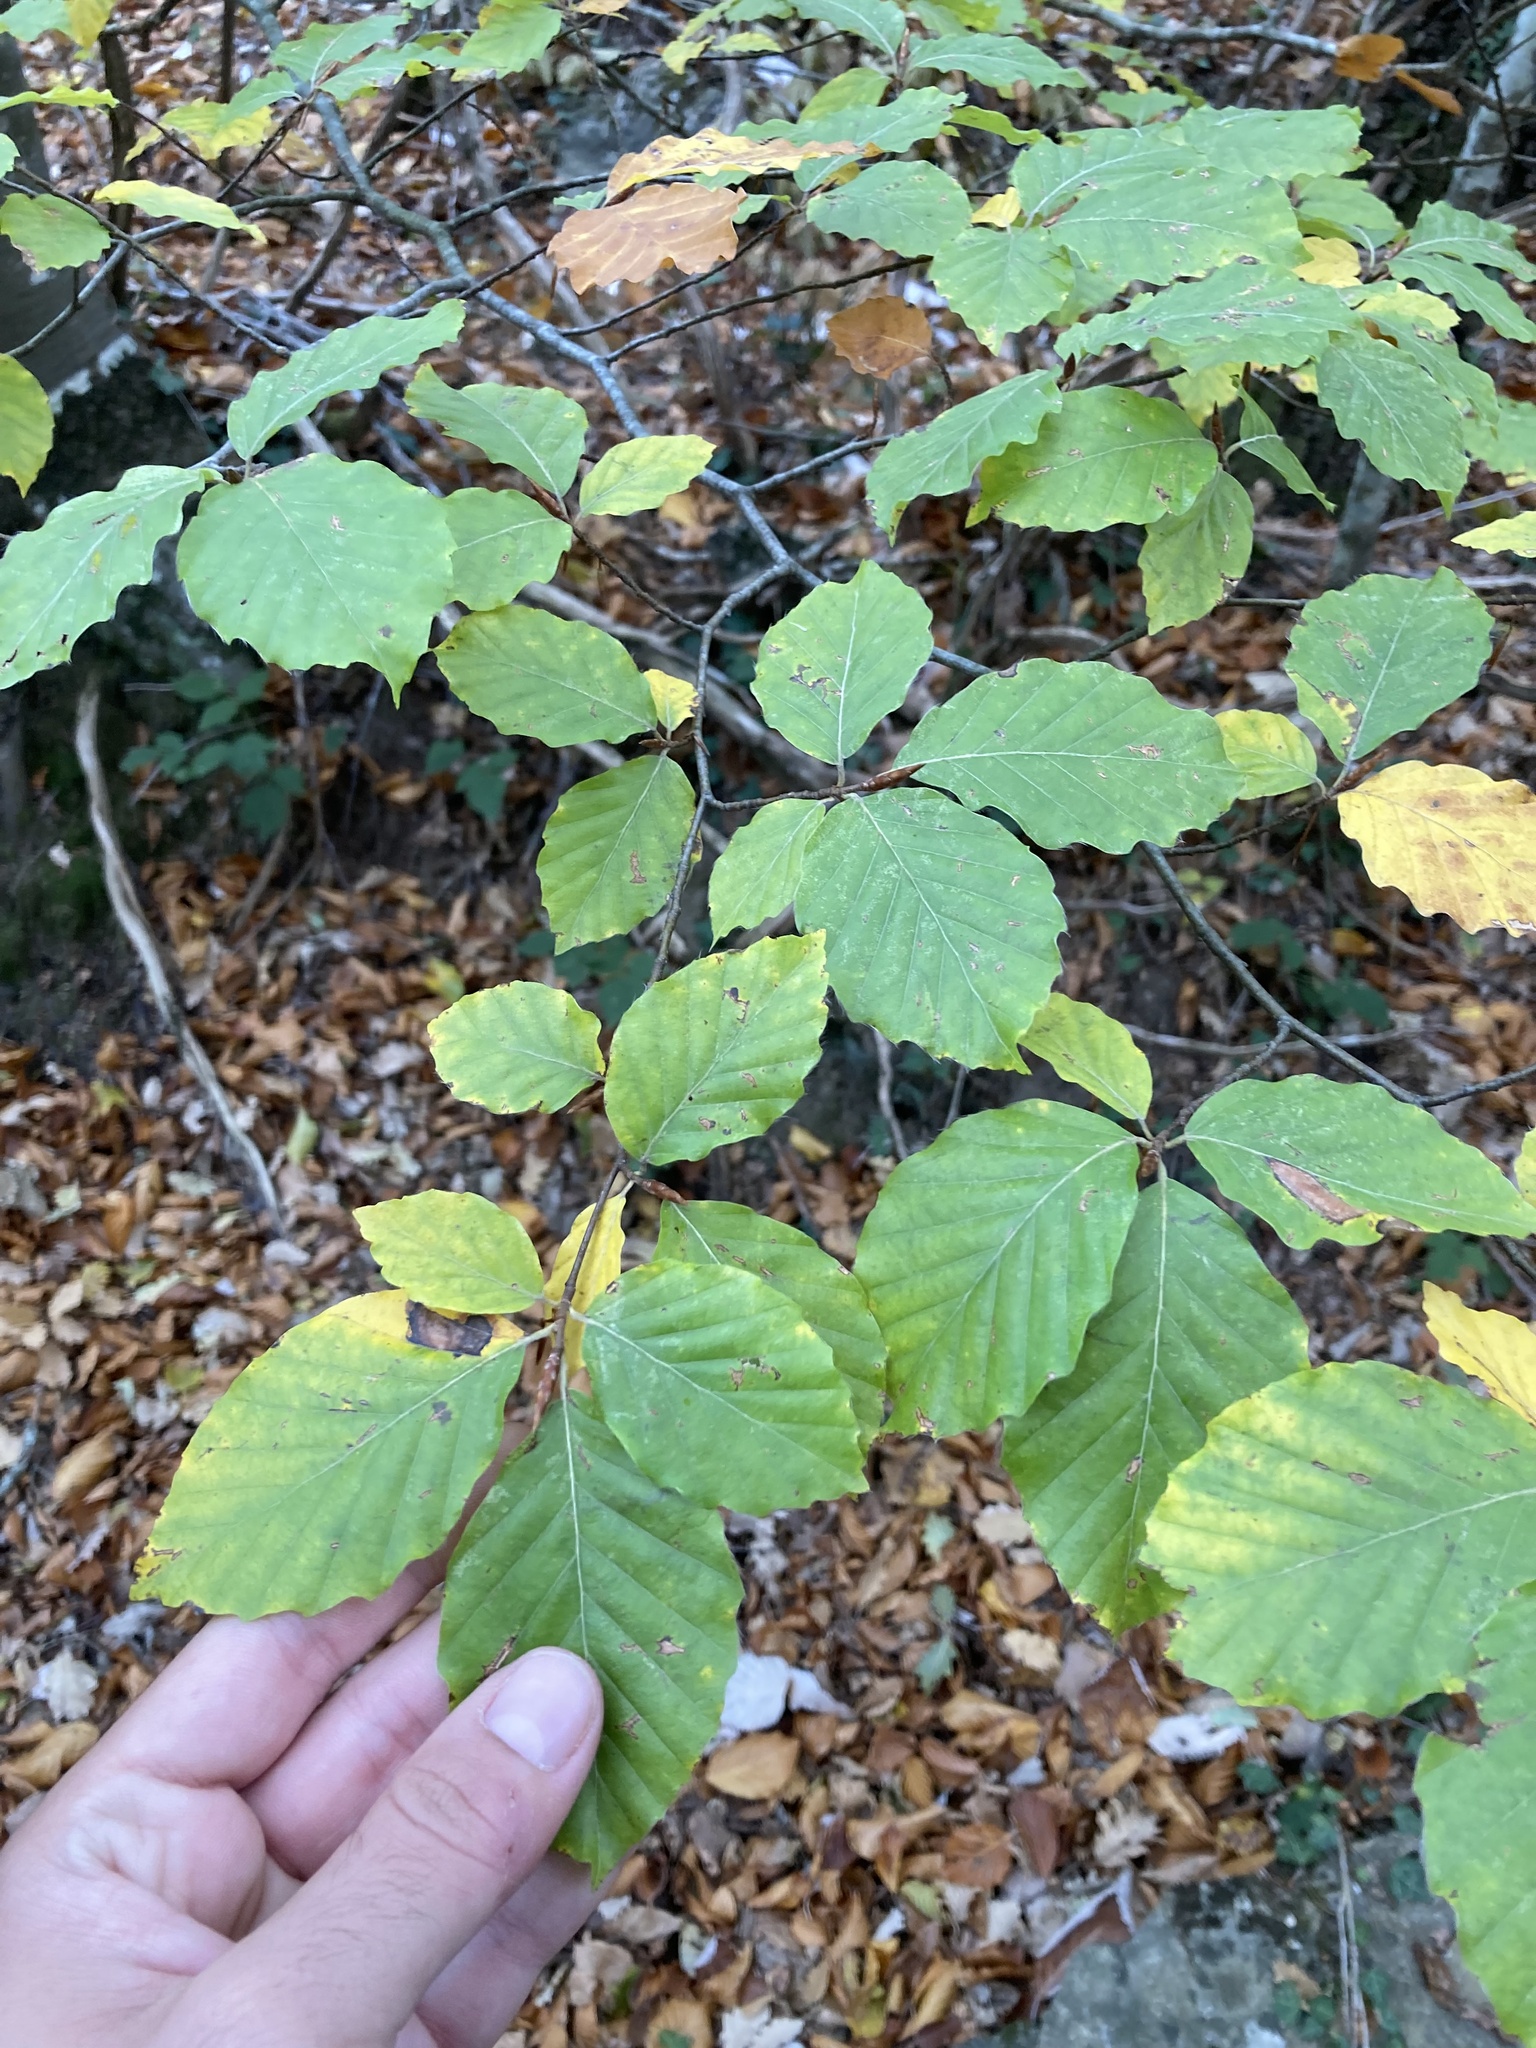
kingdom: Plantae
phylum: Tracheophyta
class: Magnoliopsida
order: Fagales
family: Fagaceae
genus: Fagus
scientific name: Fagus sylvatica
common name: Beech
